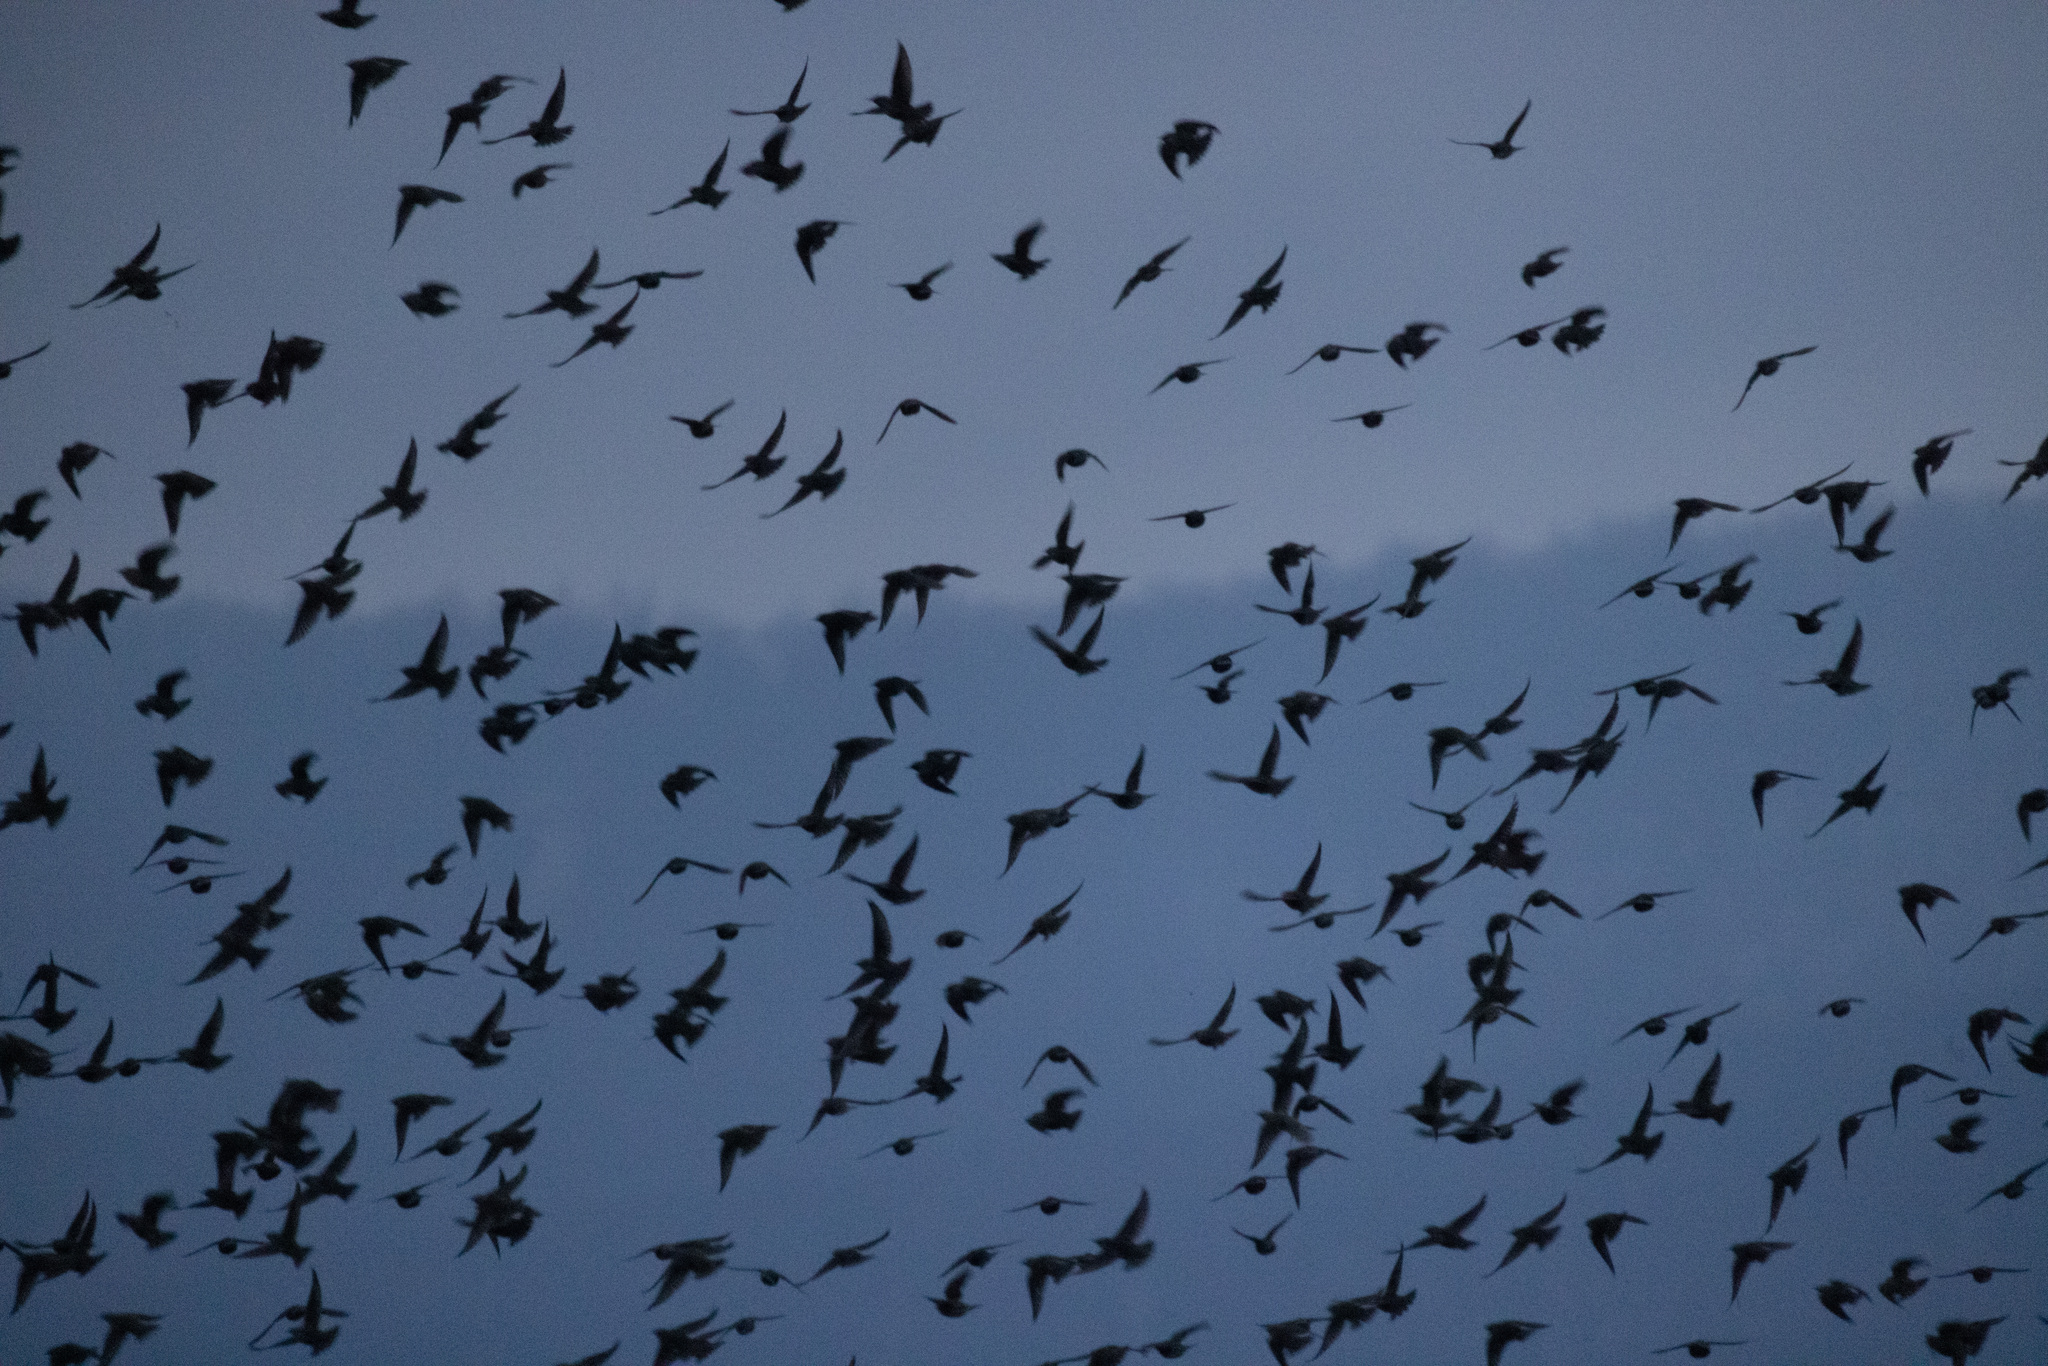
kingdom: Animalia
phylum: Chordata
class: Aves
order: Passeriformes
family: Sturnidae
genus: Sturnus
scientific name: Sturnus vulgaris
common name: Common starling
